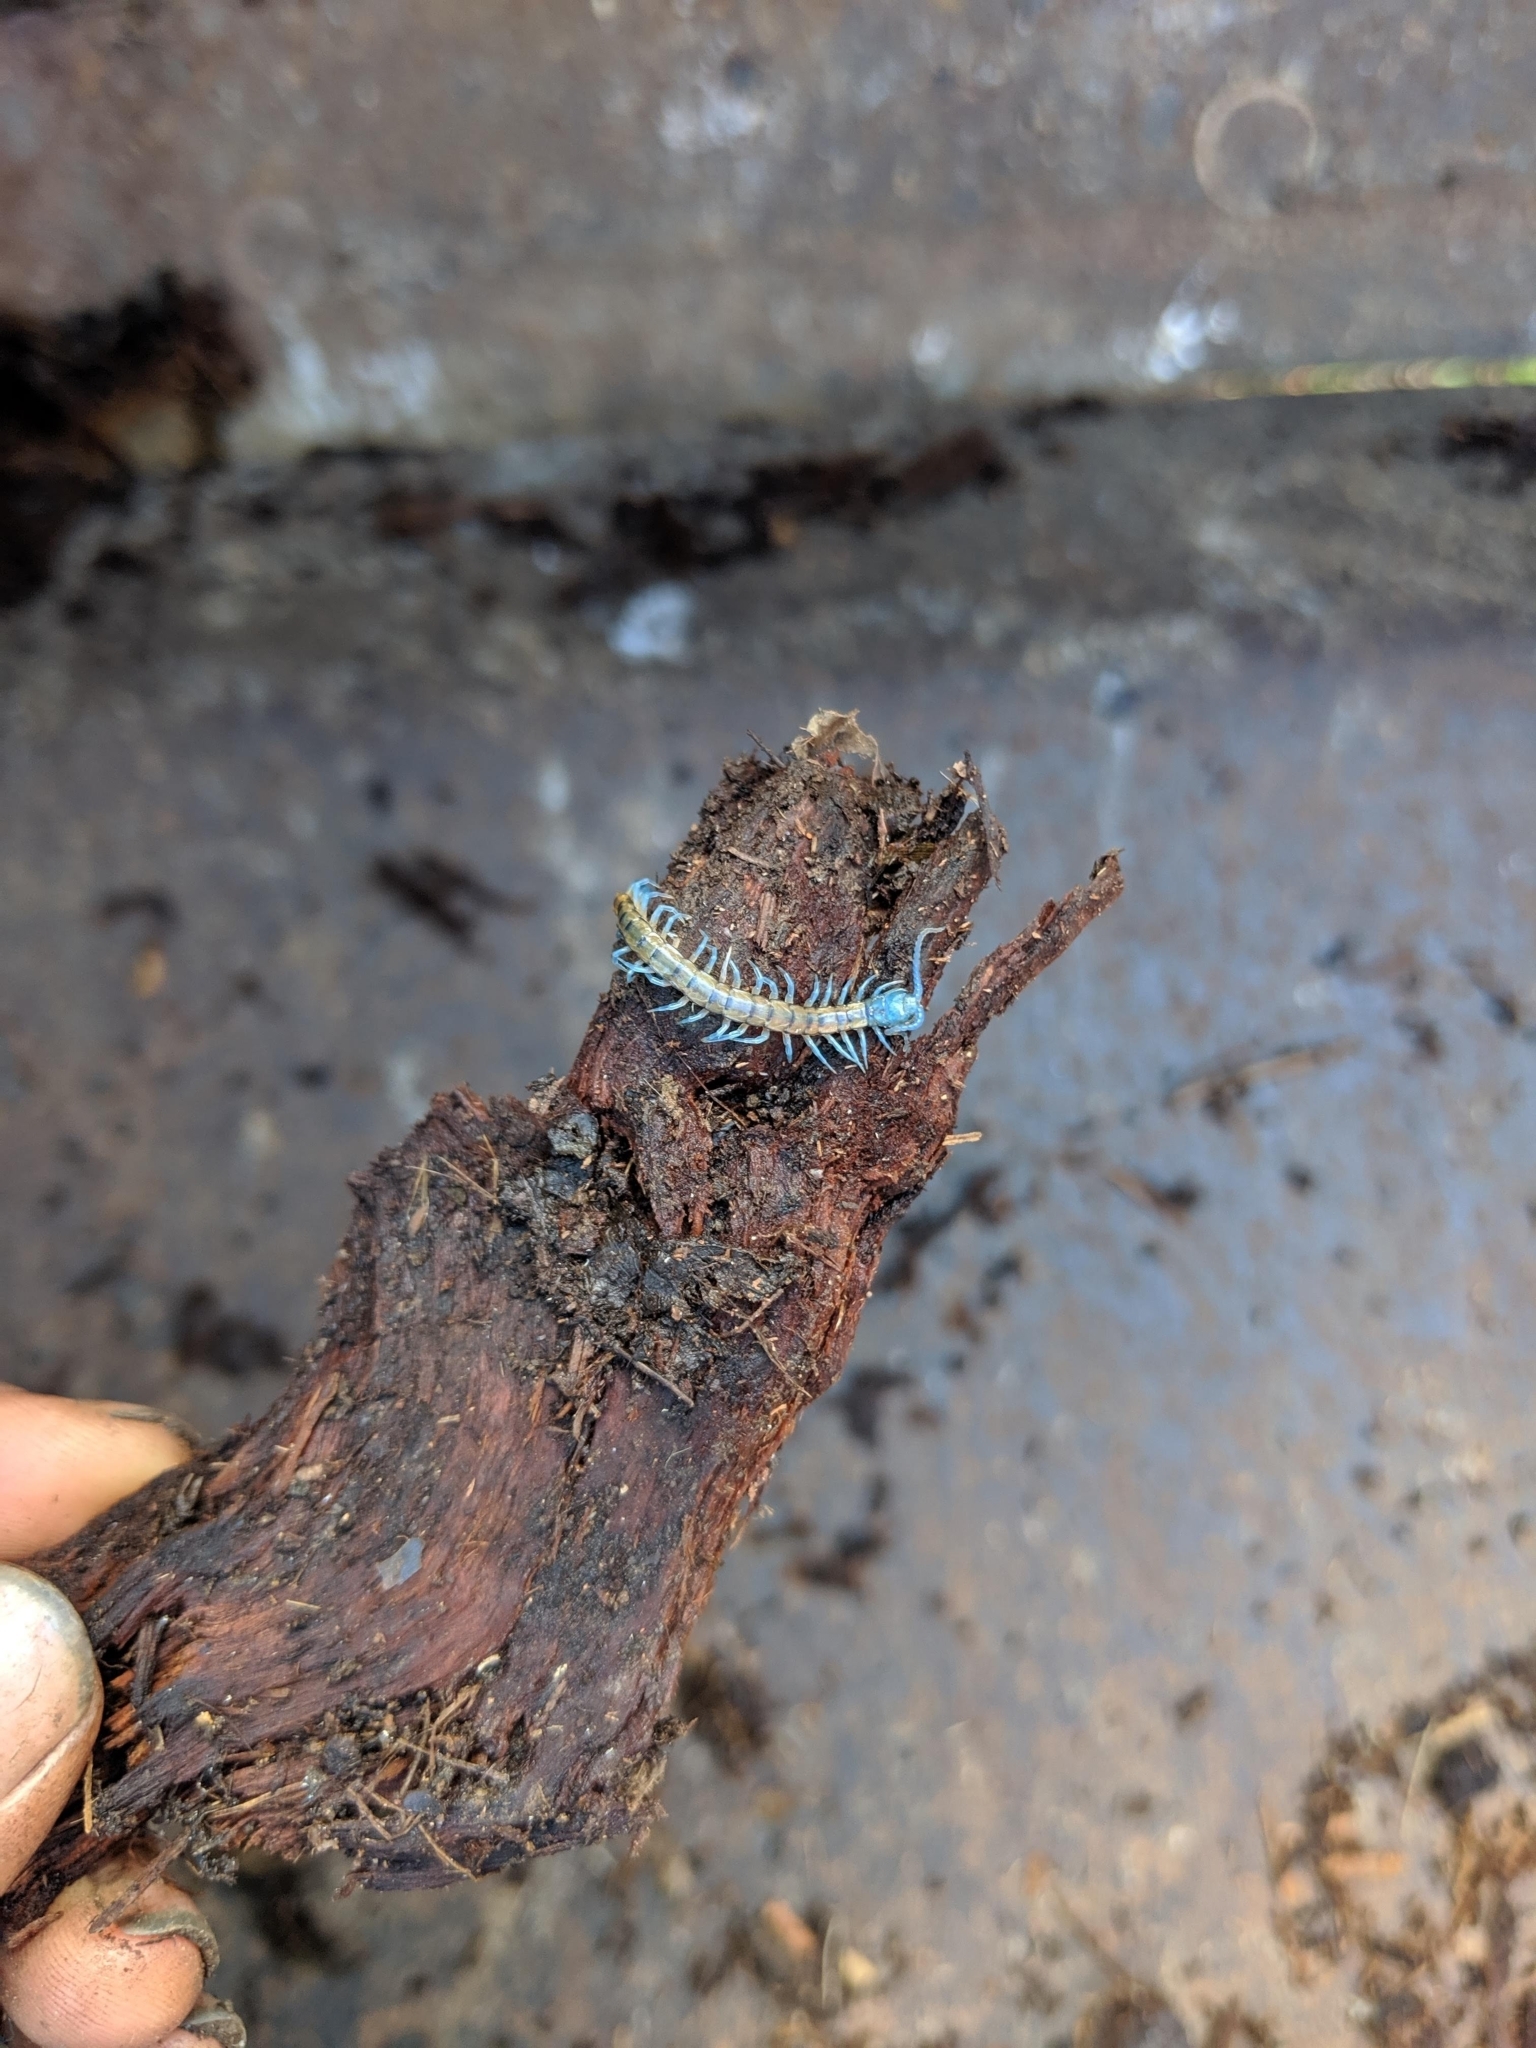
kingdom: Animalia
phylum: Arthropoda
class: Chilopoda
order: Scolopendromorpha
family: Scolopendridae
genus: Scolopendra
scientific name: Scolopendra subspinipes
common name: Centipede
